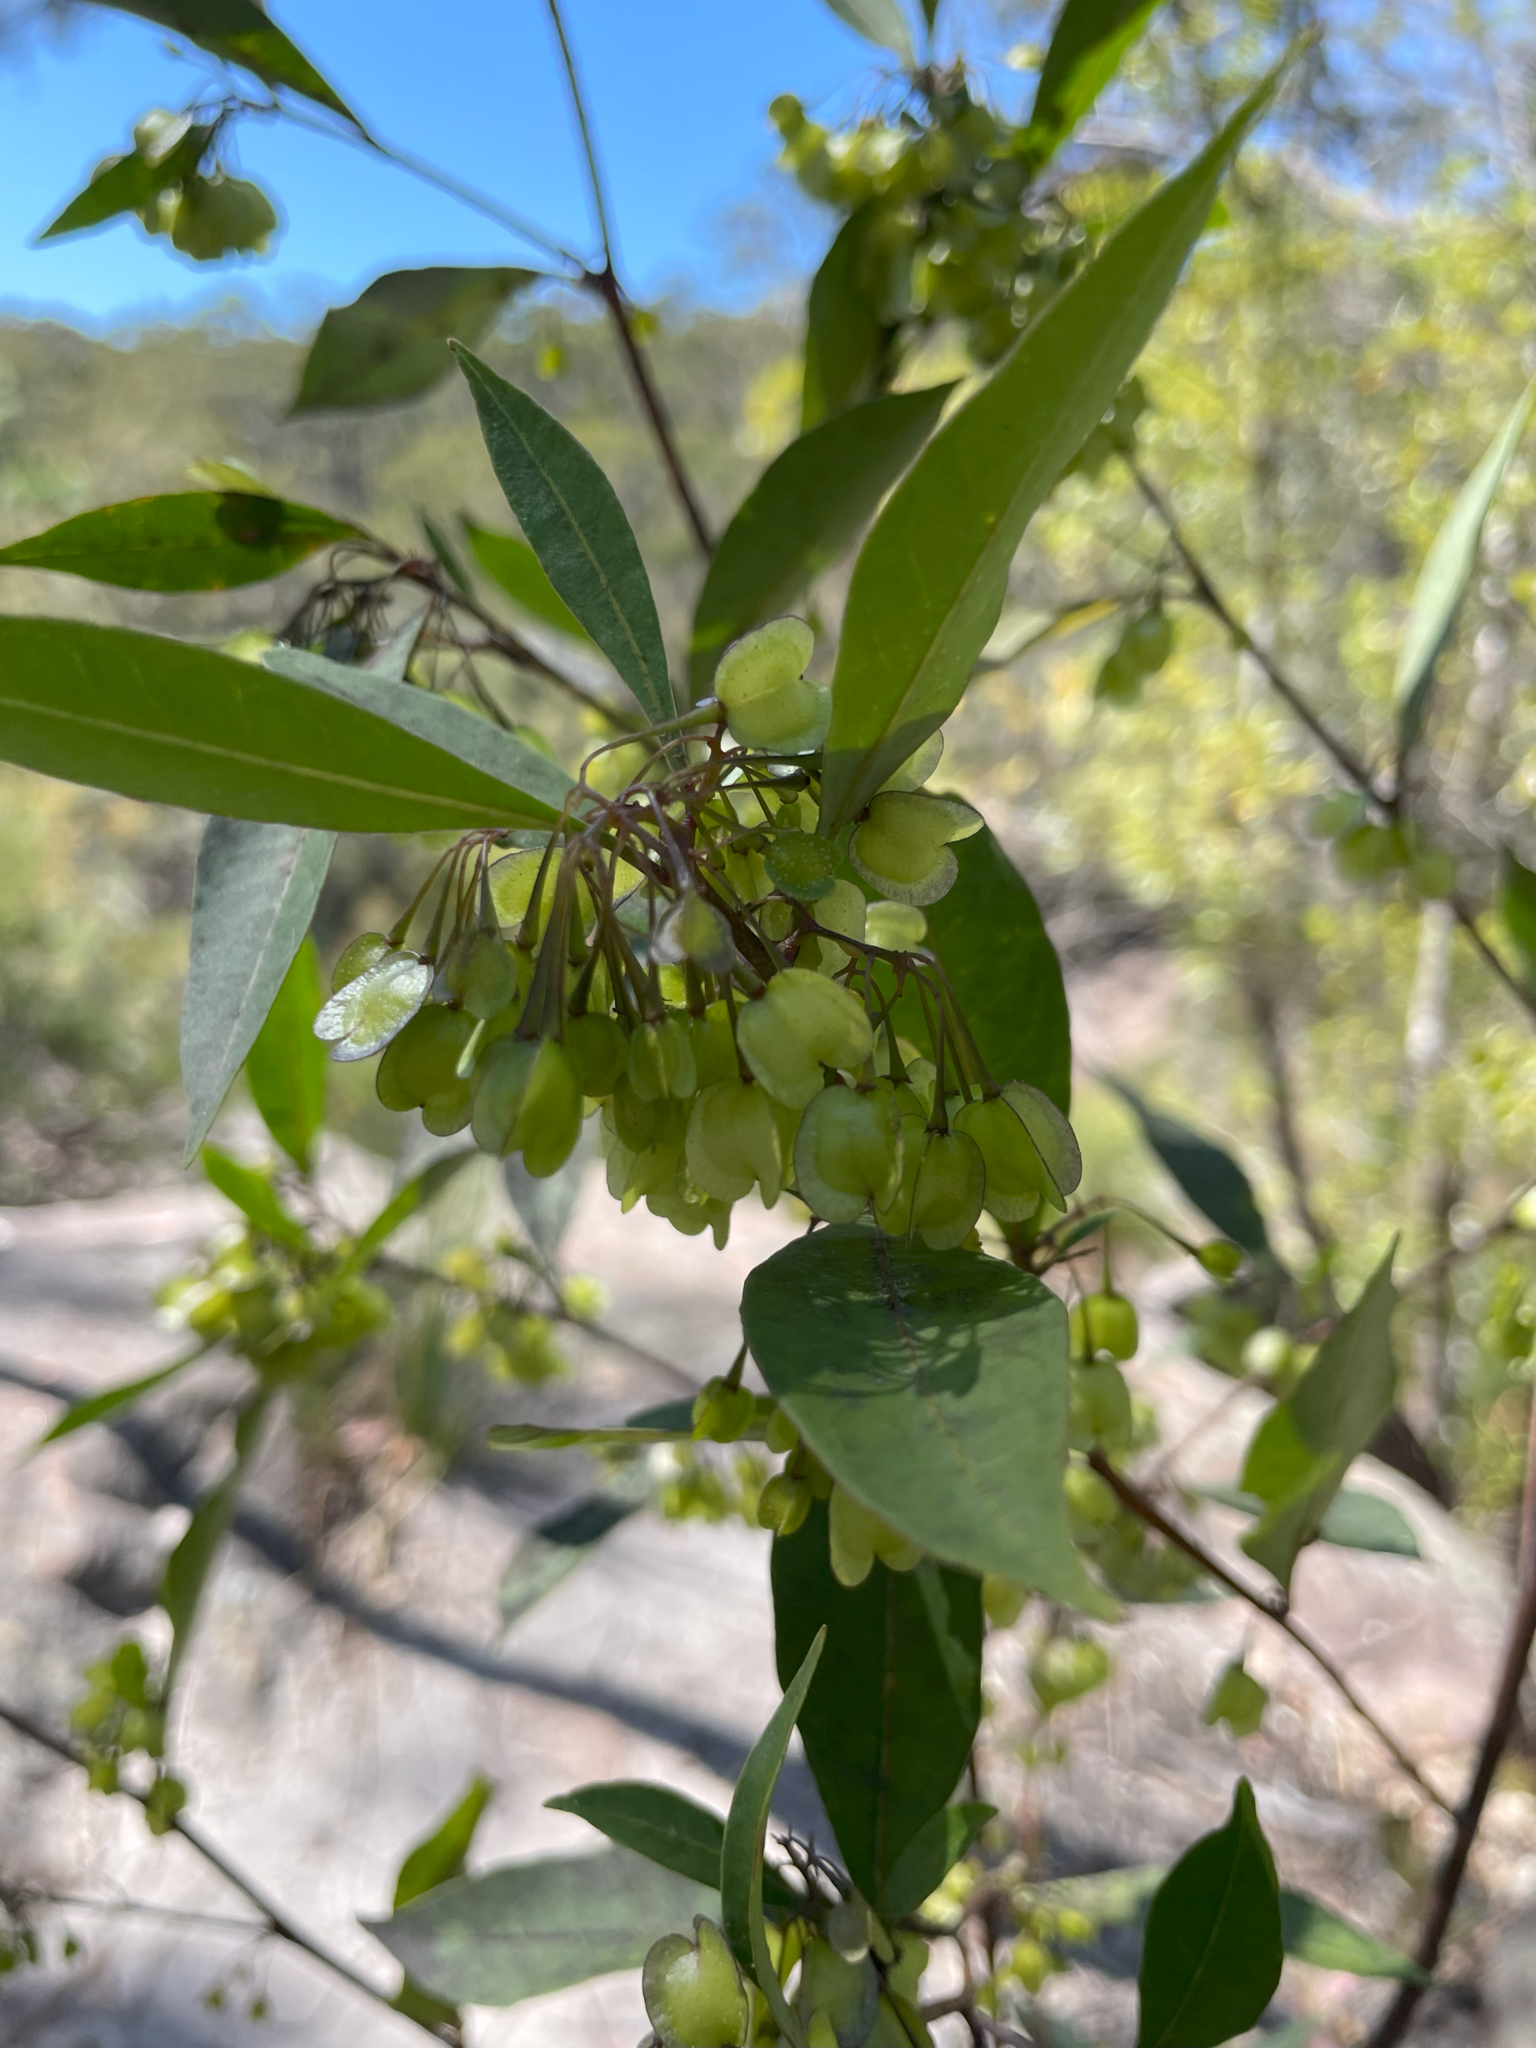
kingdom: Plantae
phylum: Tracheophyta
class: Magnoliopsida
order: Sapindales
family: Sapindaceae
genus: Dodonaea
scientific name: Dodonaea triquetra
